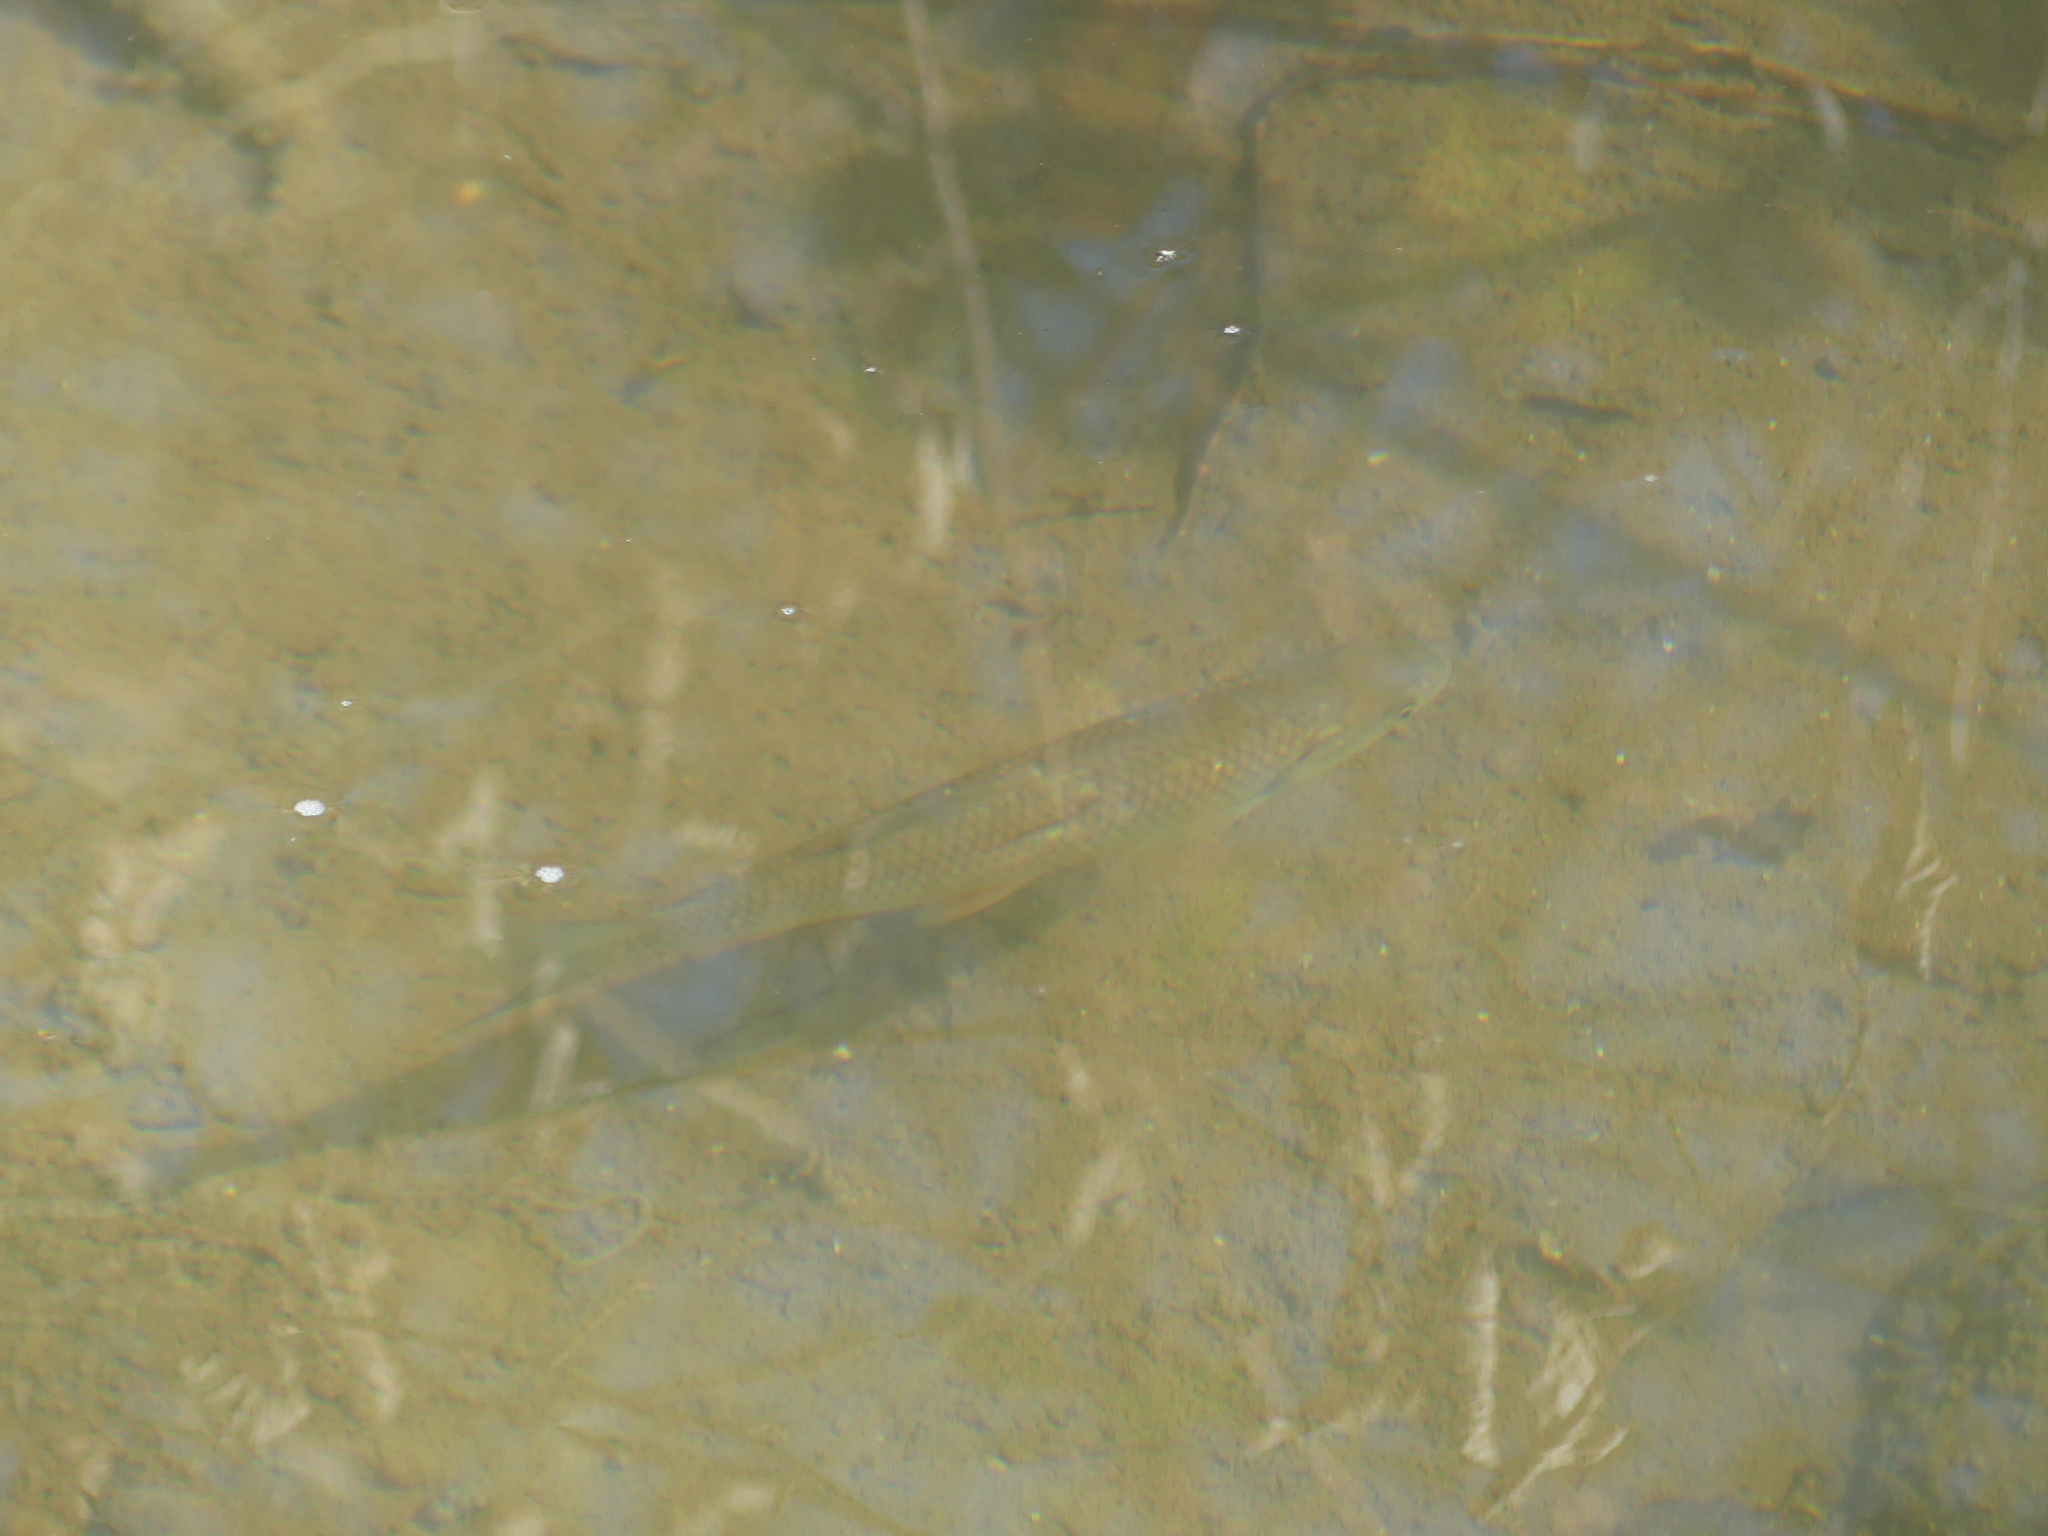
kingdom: Animalia
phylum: Chordata
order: Cypriniformes
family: Cyprinidae
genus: Squalius
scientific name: Squalius cephalus
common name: Chub
